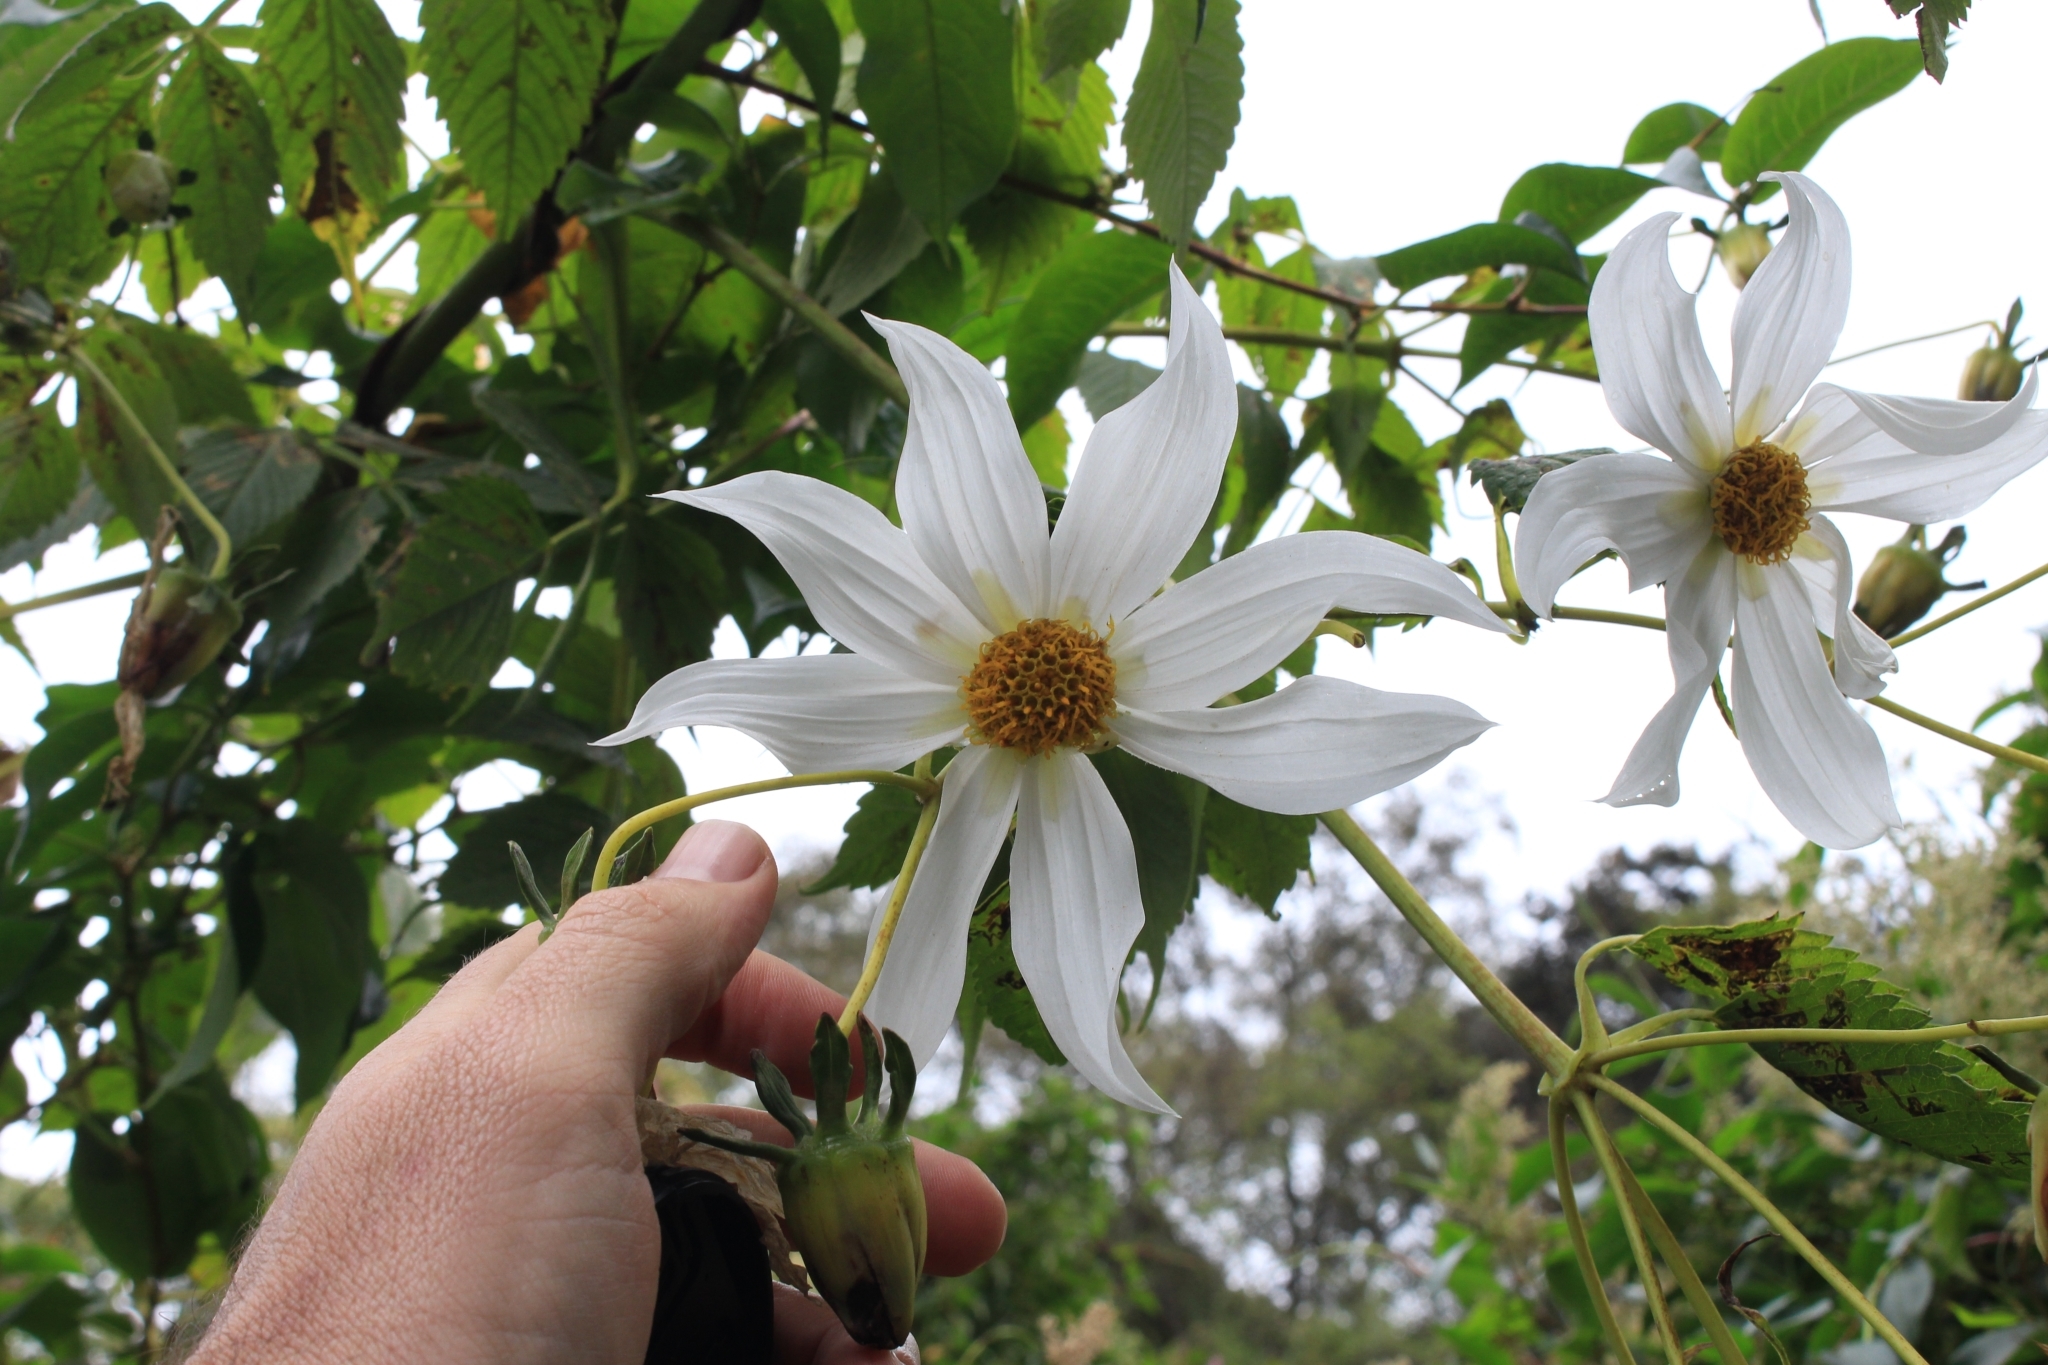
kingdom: Plantae
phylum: Tracheophyta
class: Magnoliopsida
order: Asterales
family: Asteraceae
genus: Dahlia
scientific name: Dahlia imperialis
